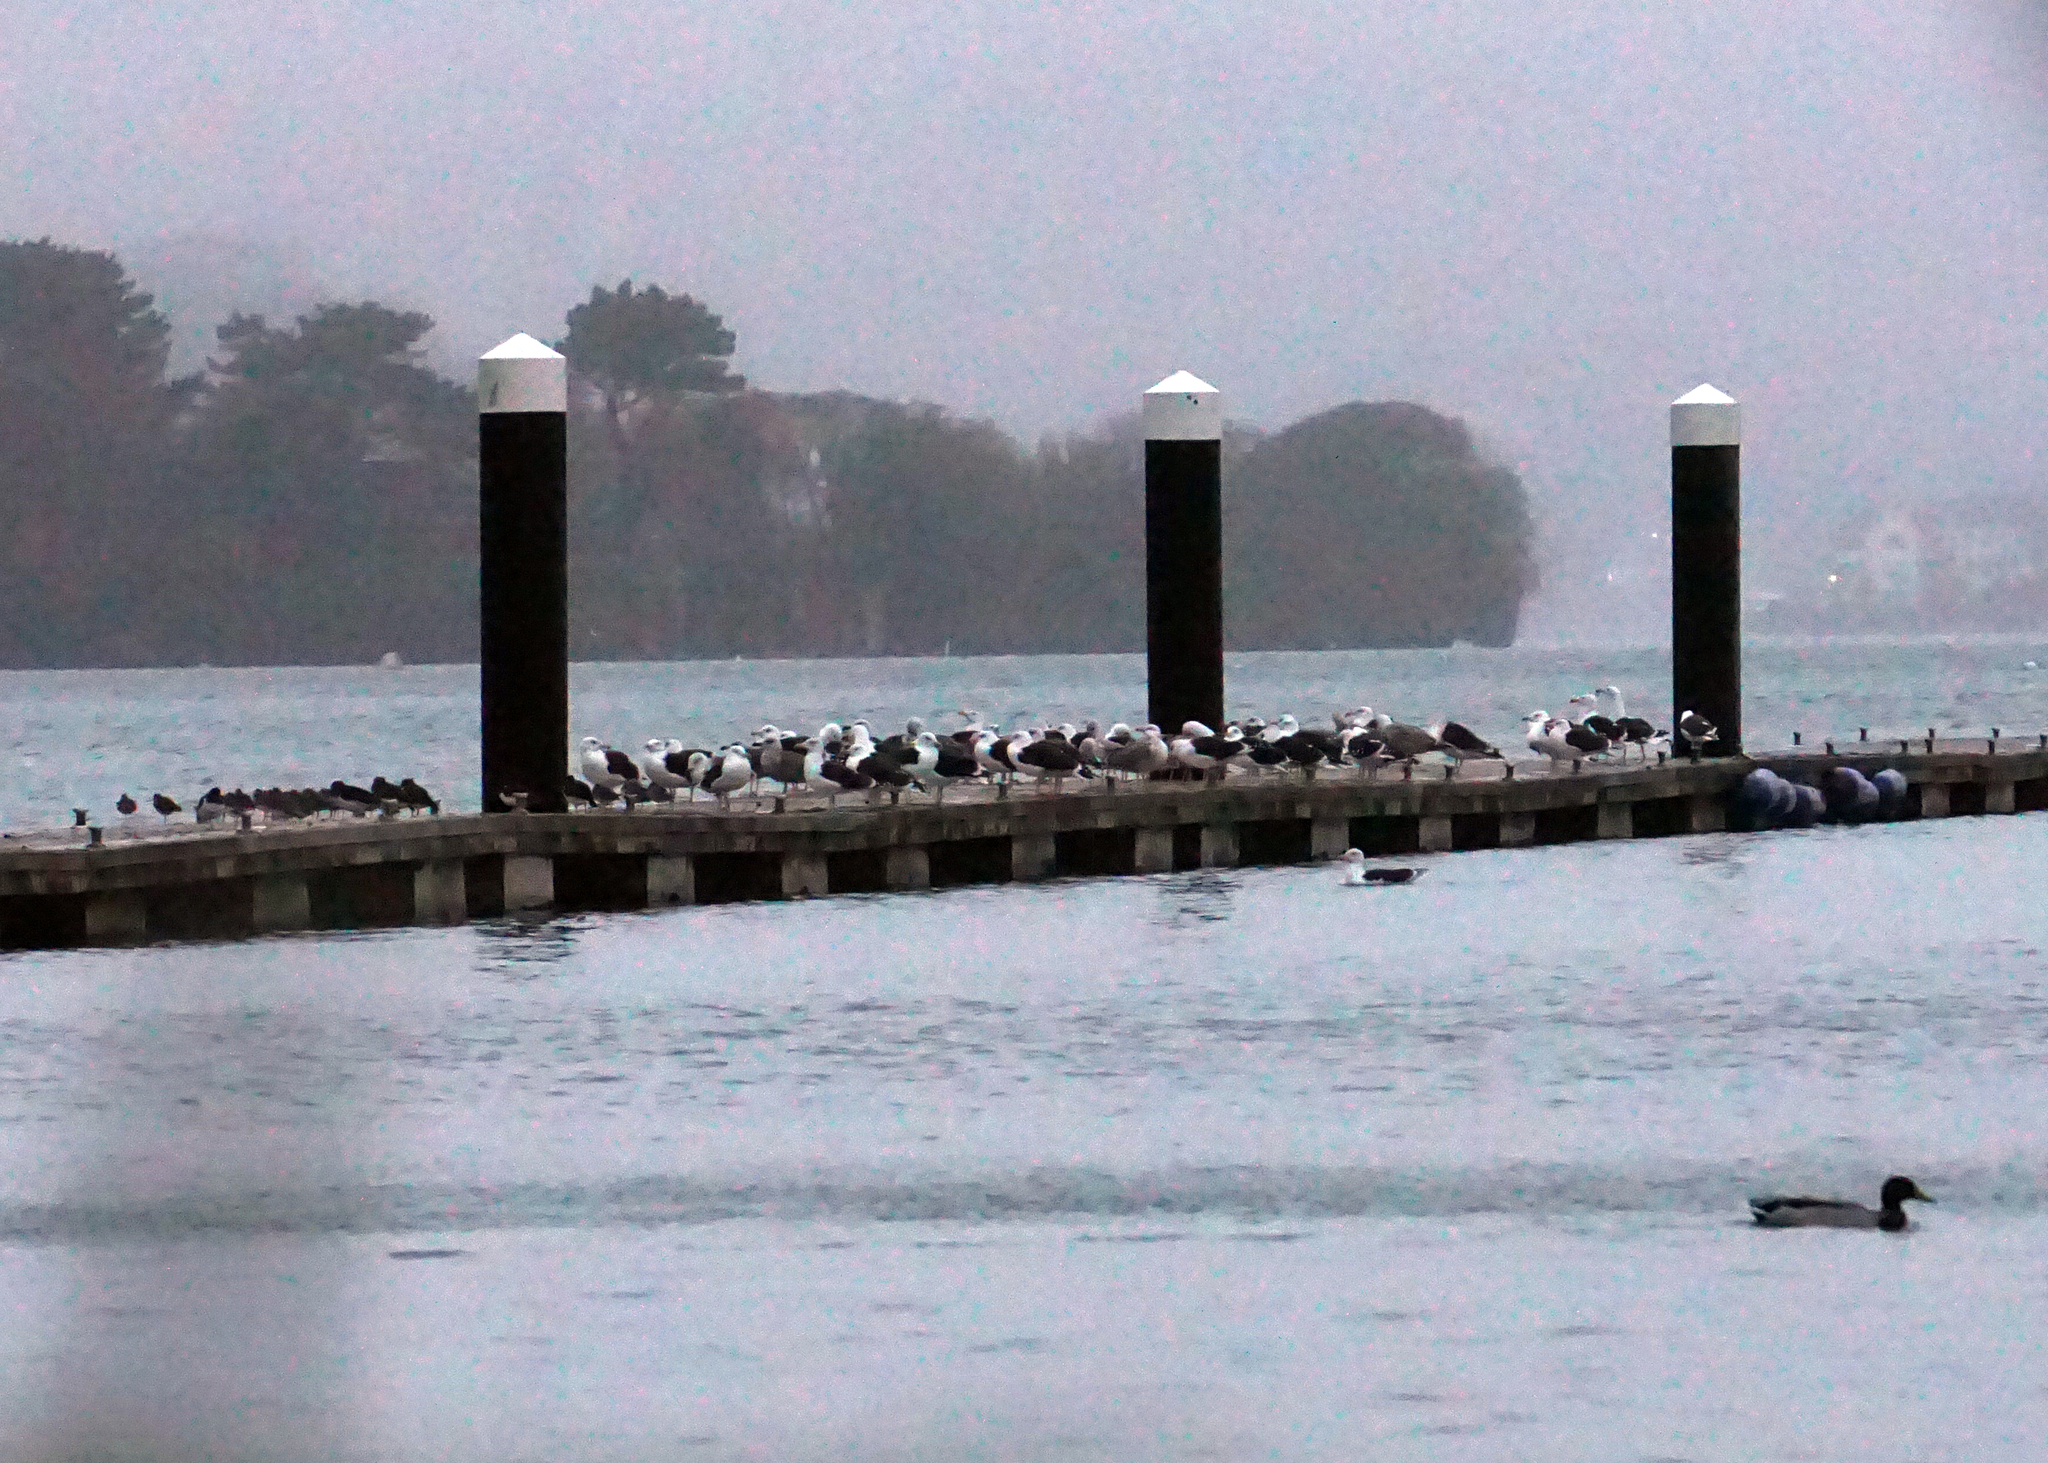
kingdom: Animalia
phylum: Chordata
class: Aves
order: Charadriiformes
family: Laridae
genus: Larus
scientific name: Larus marinus
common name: Great black-backed gull
